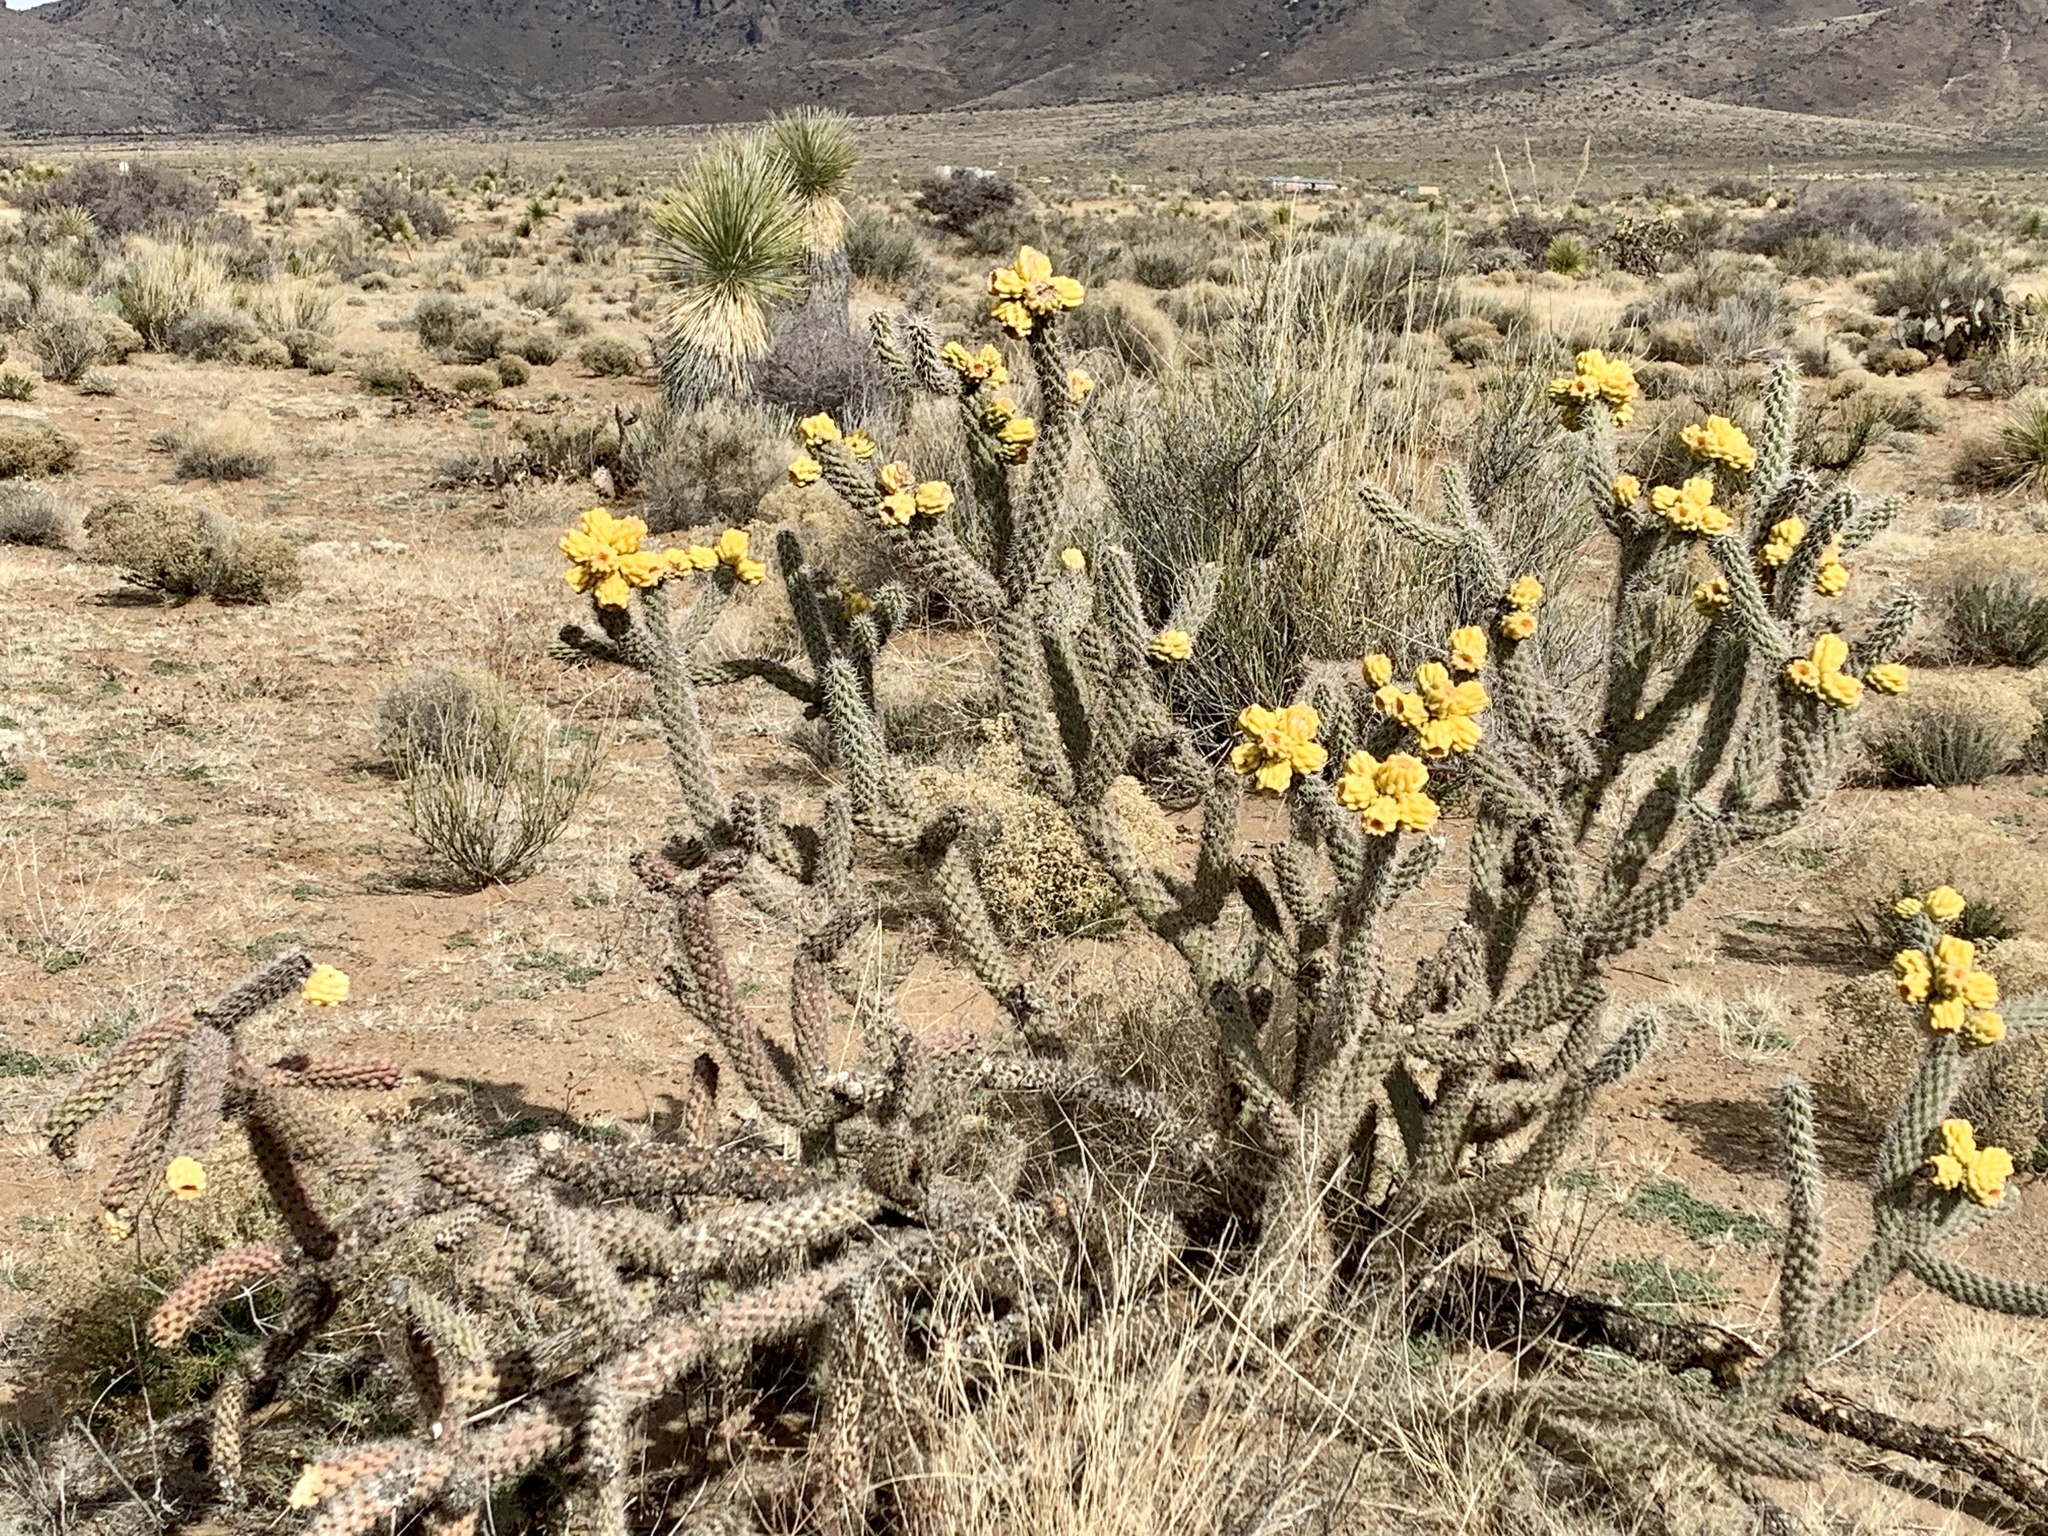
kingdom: Plantae
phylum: Tracheophyta
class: Magnoliopsida
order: Caryophyllales
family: Cactaceae
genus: Cylindropuntia
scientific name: Cylindropuntia imbricata
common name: Candelabrum cactus
